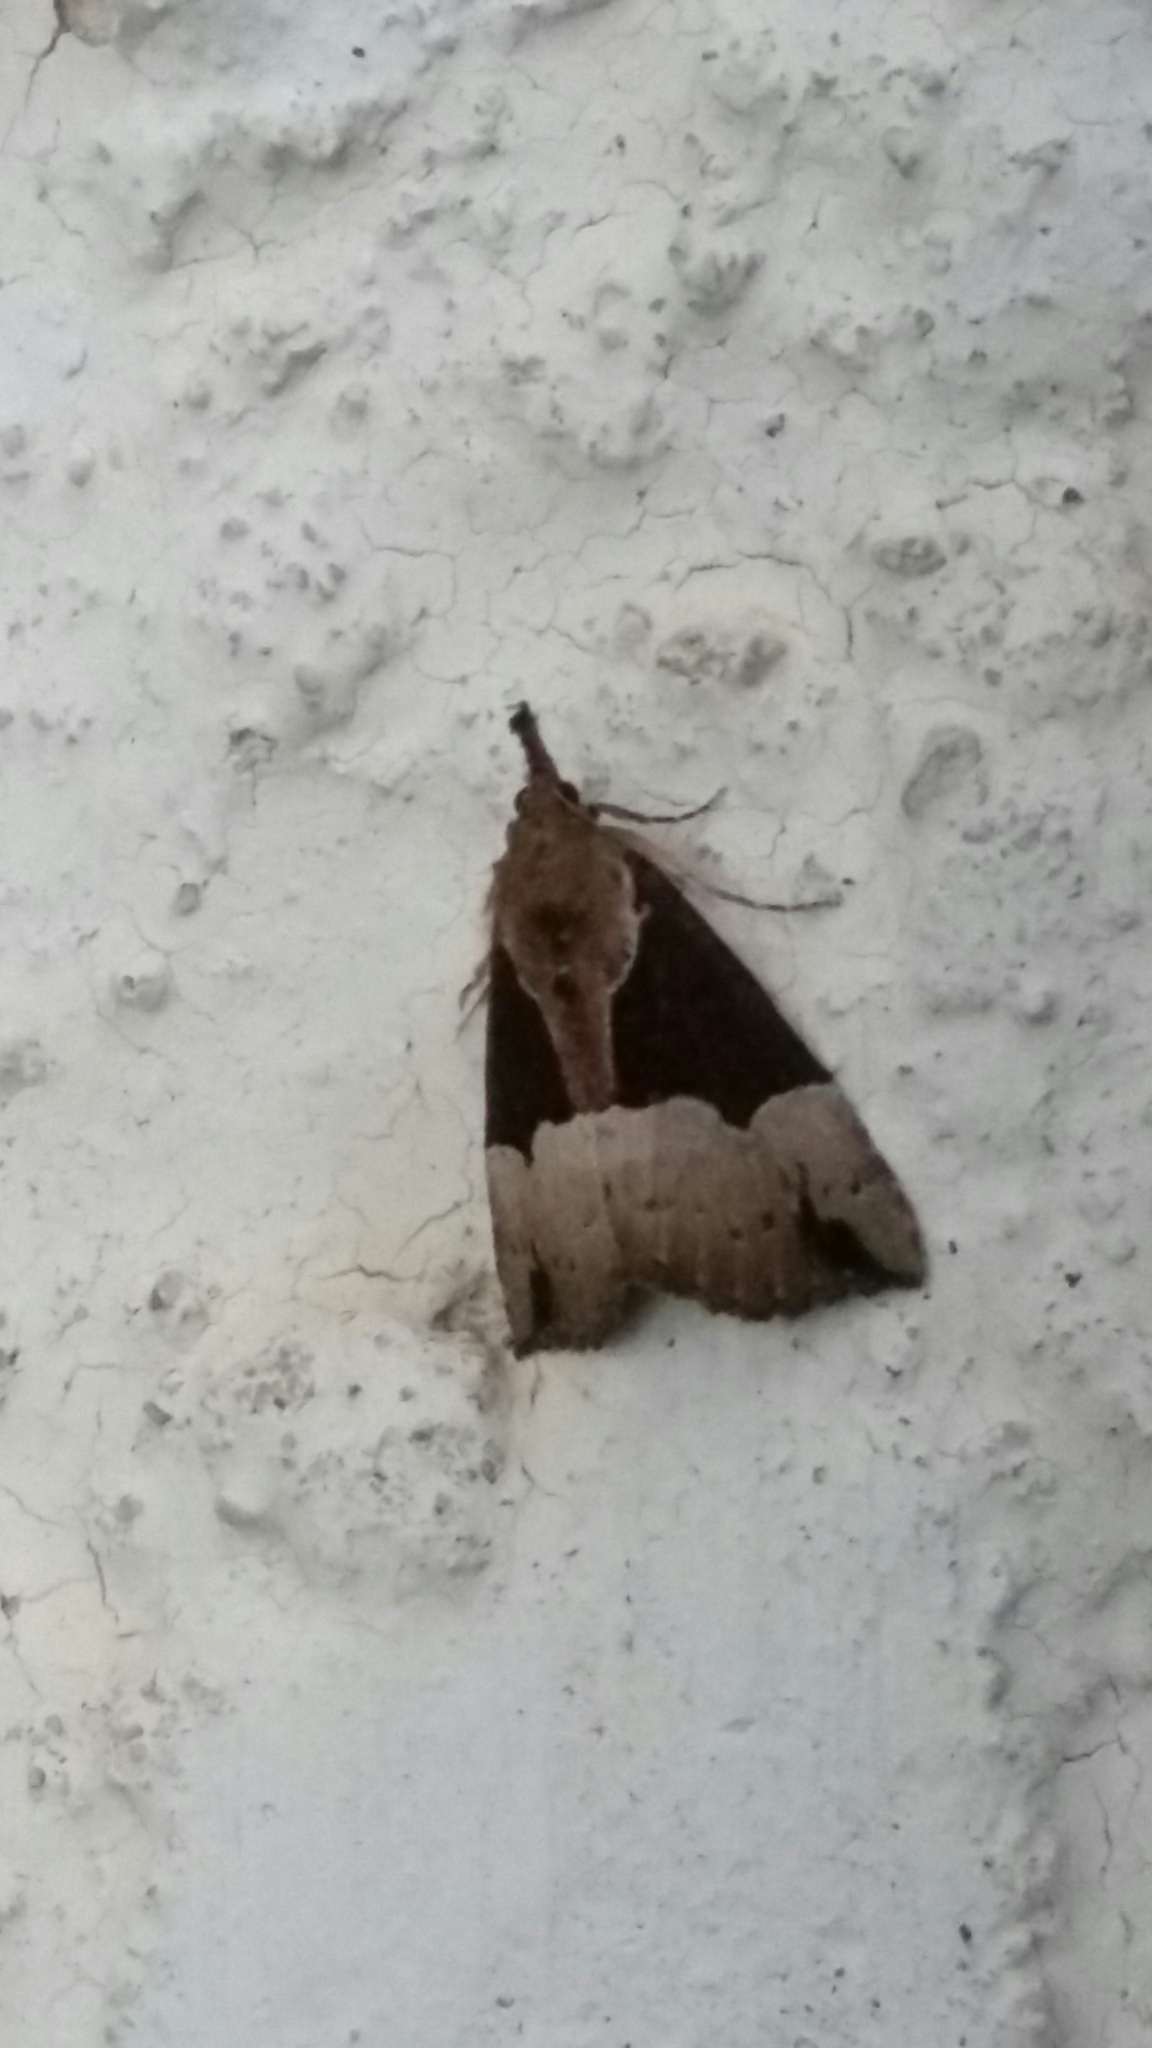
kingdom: Animalia
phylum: Arthropoda
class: Insecta
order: Lepidoptera
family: Erebidae
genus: Hypena
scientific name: Hypena bijugalis
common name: Dimorphic bomolocha moth
